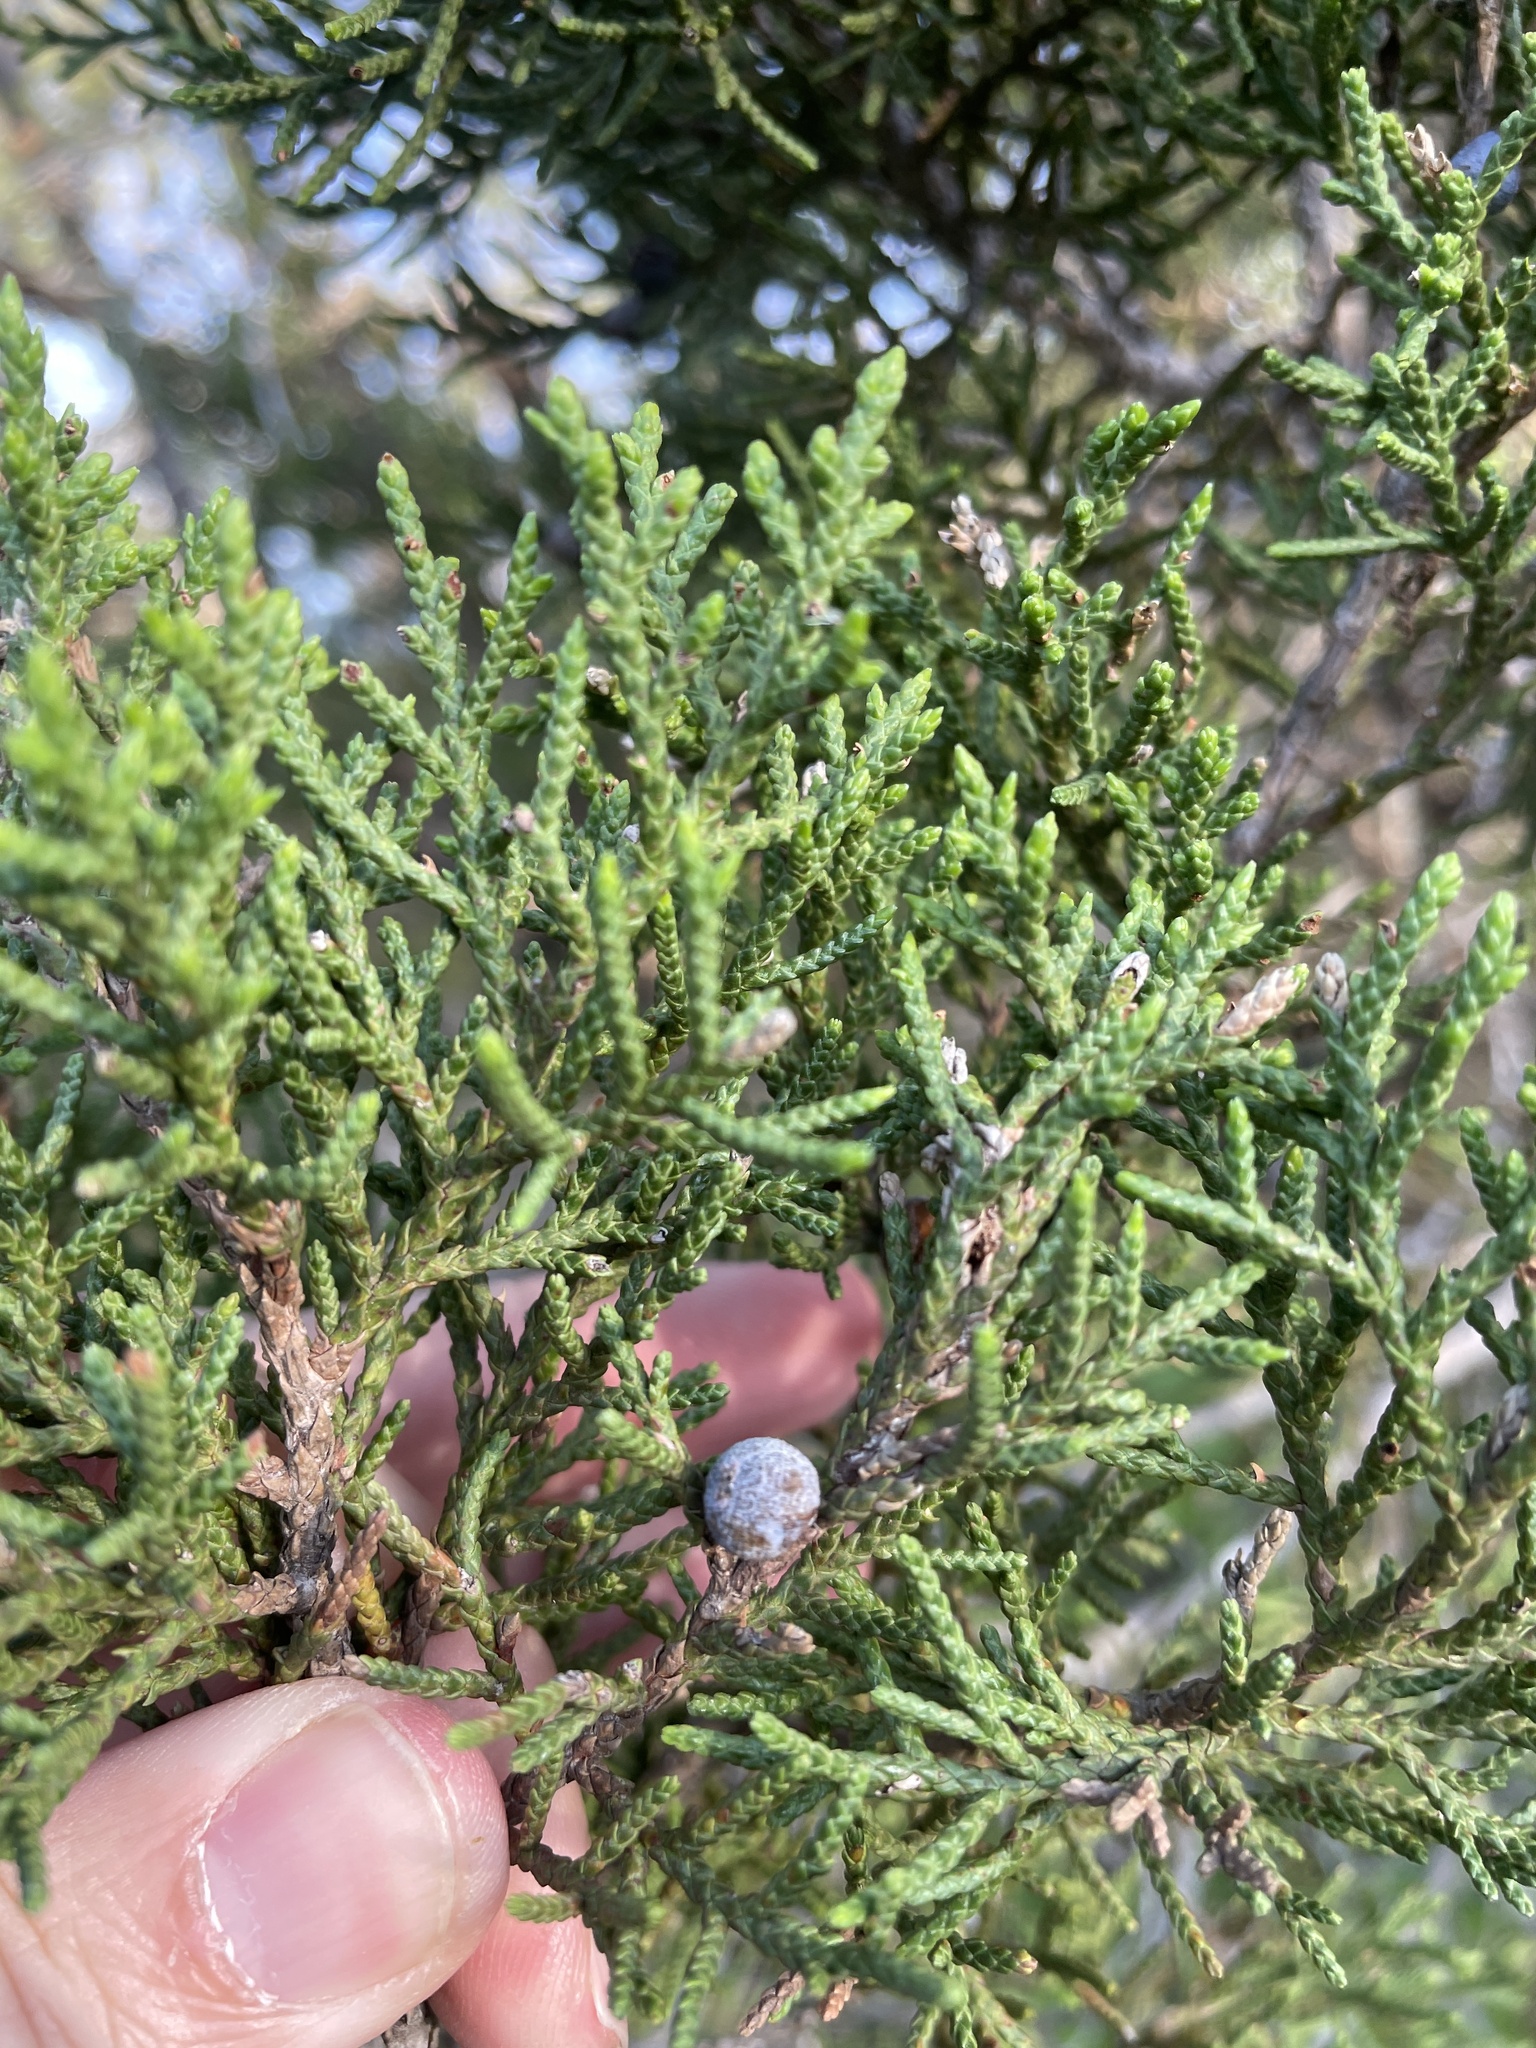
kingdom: Plantae
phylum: Tracheophyta
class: Pinopsida
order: Pinales
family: Cupressaceae
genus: Juniperus
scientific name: Juniperus ashei
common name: Mexican juniper
